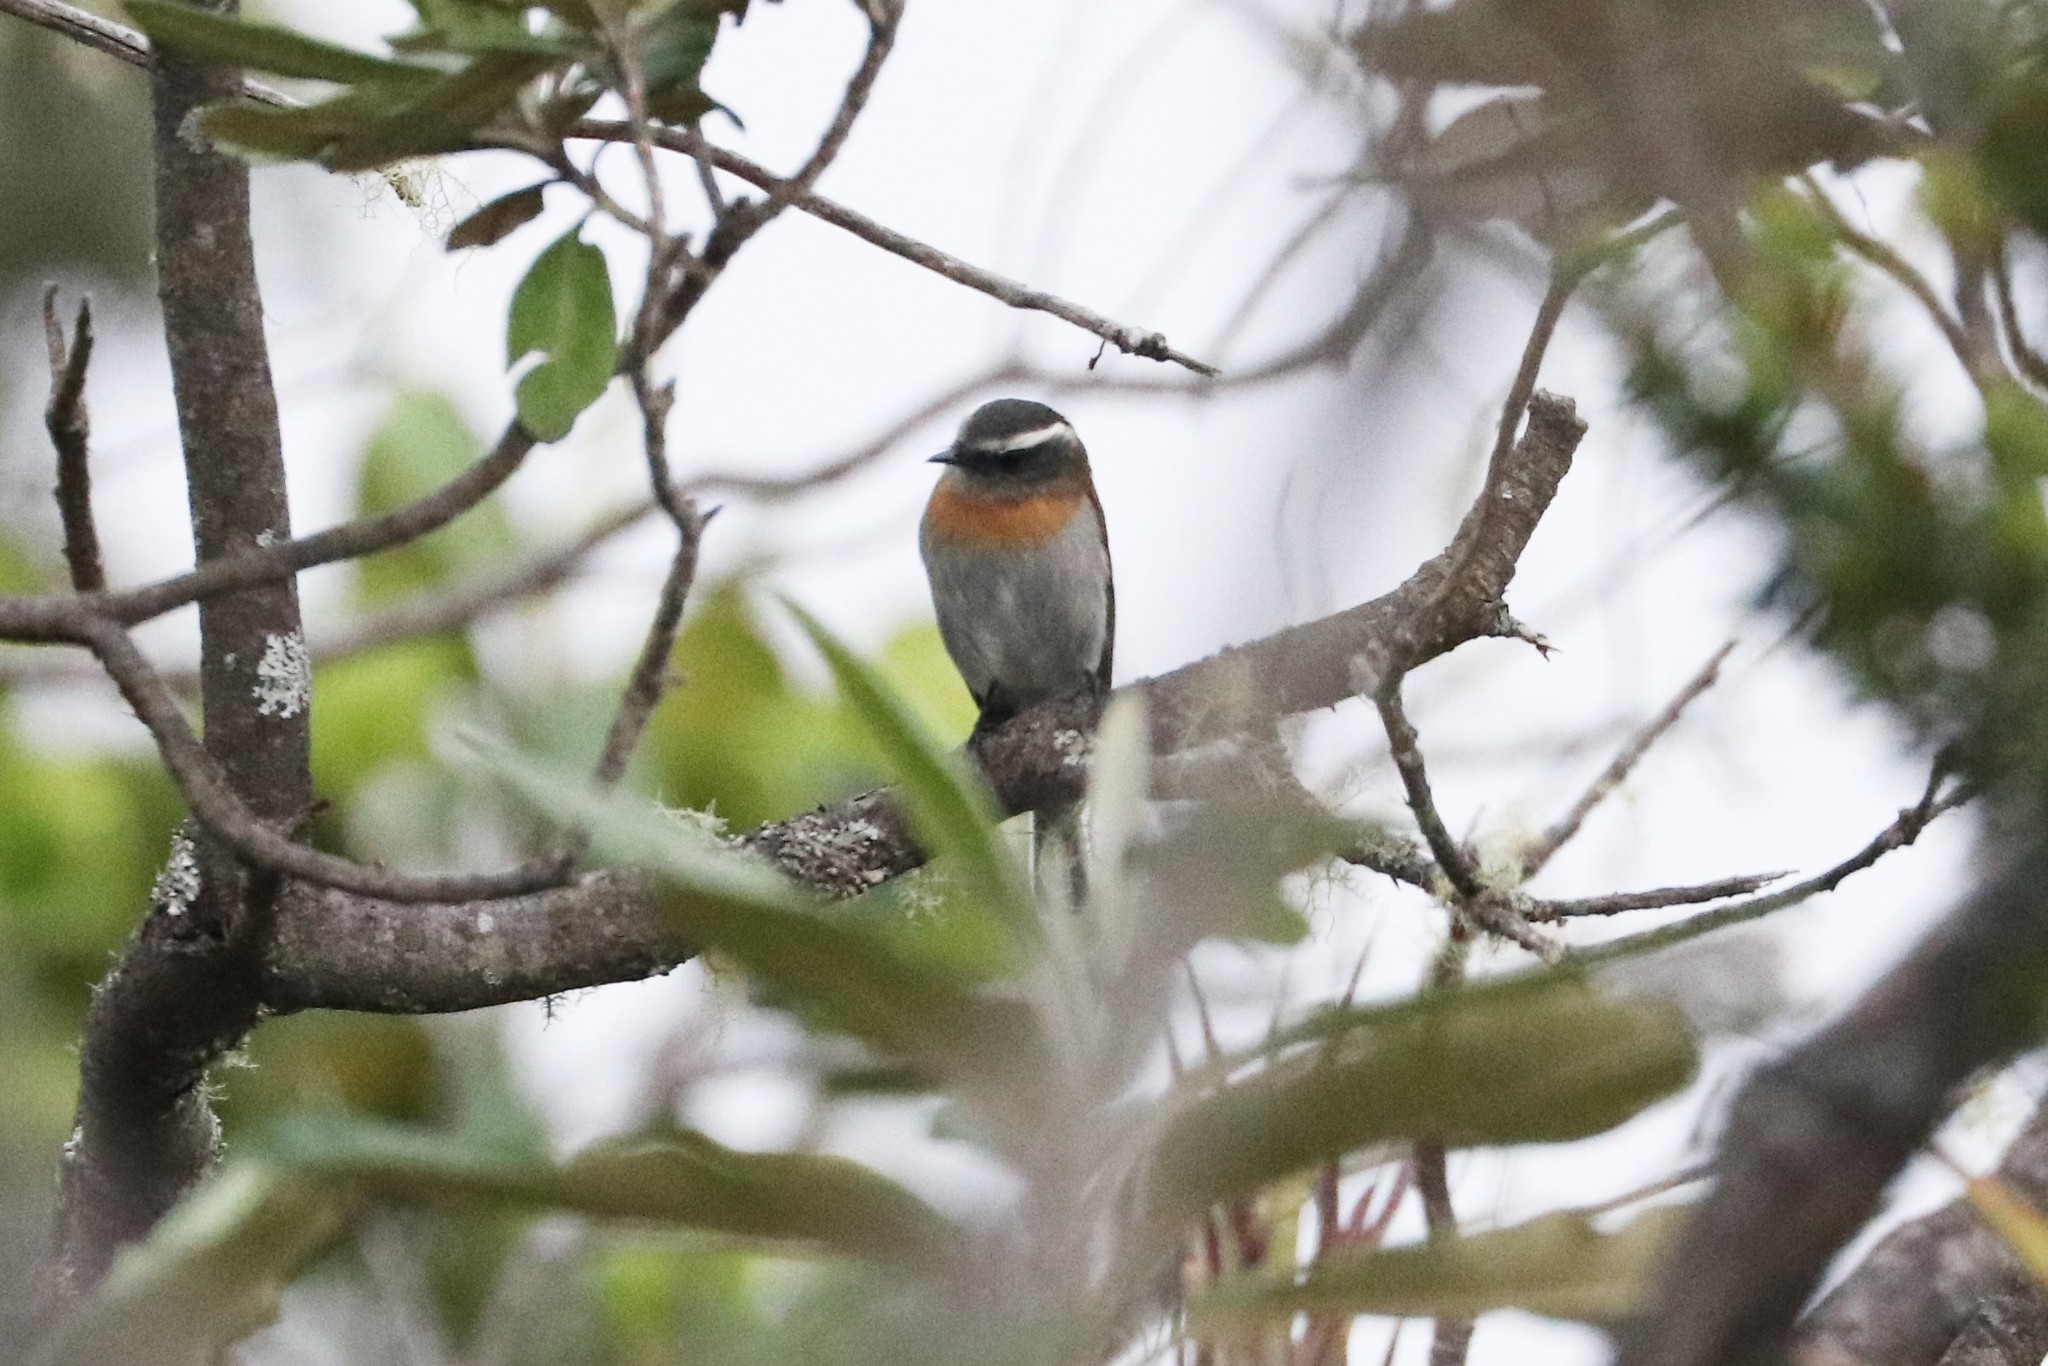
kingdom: Animalia
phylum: Chordata
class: Aves
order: Passeriformes
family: Tyrannidae
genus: Ochthoeca
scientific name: Ochthoeca rufipectoralis
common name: Rufous-breasted chat-tyrant
